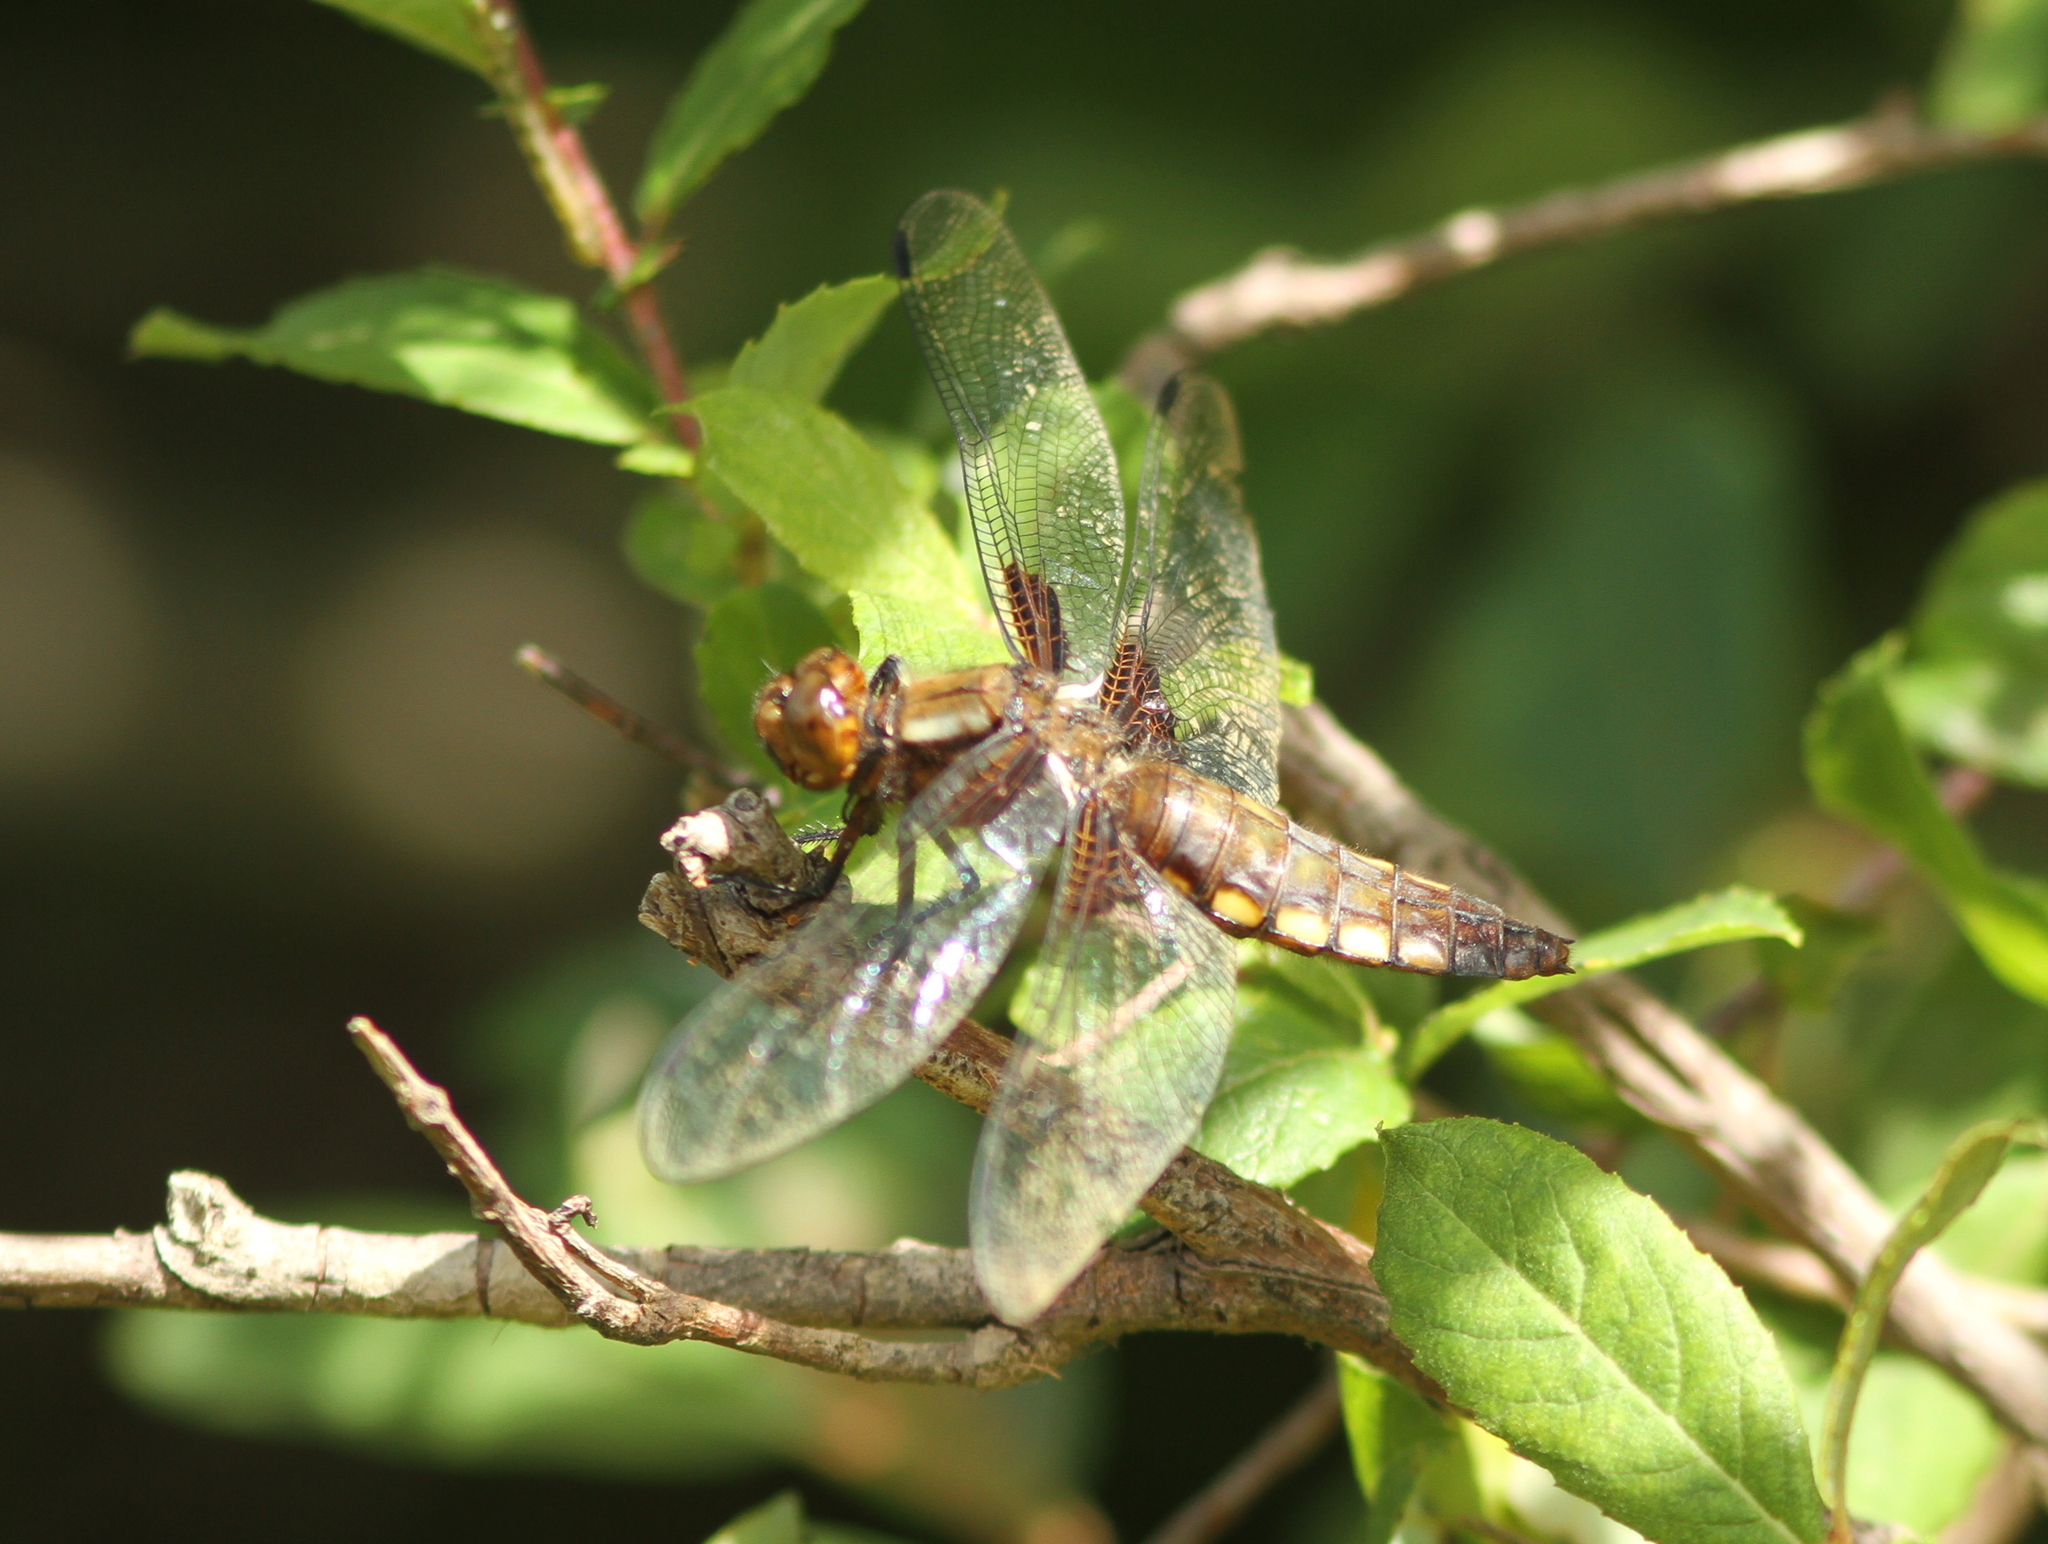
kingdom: Animalia
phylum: Arthropoda
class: Insecta
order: Odonata
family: Libellulidae
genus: Libellula
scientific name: Libellula depressa
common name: Broad-bodied chaser
